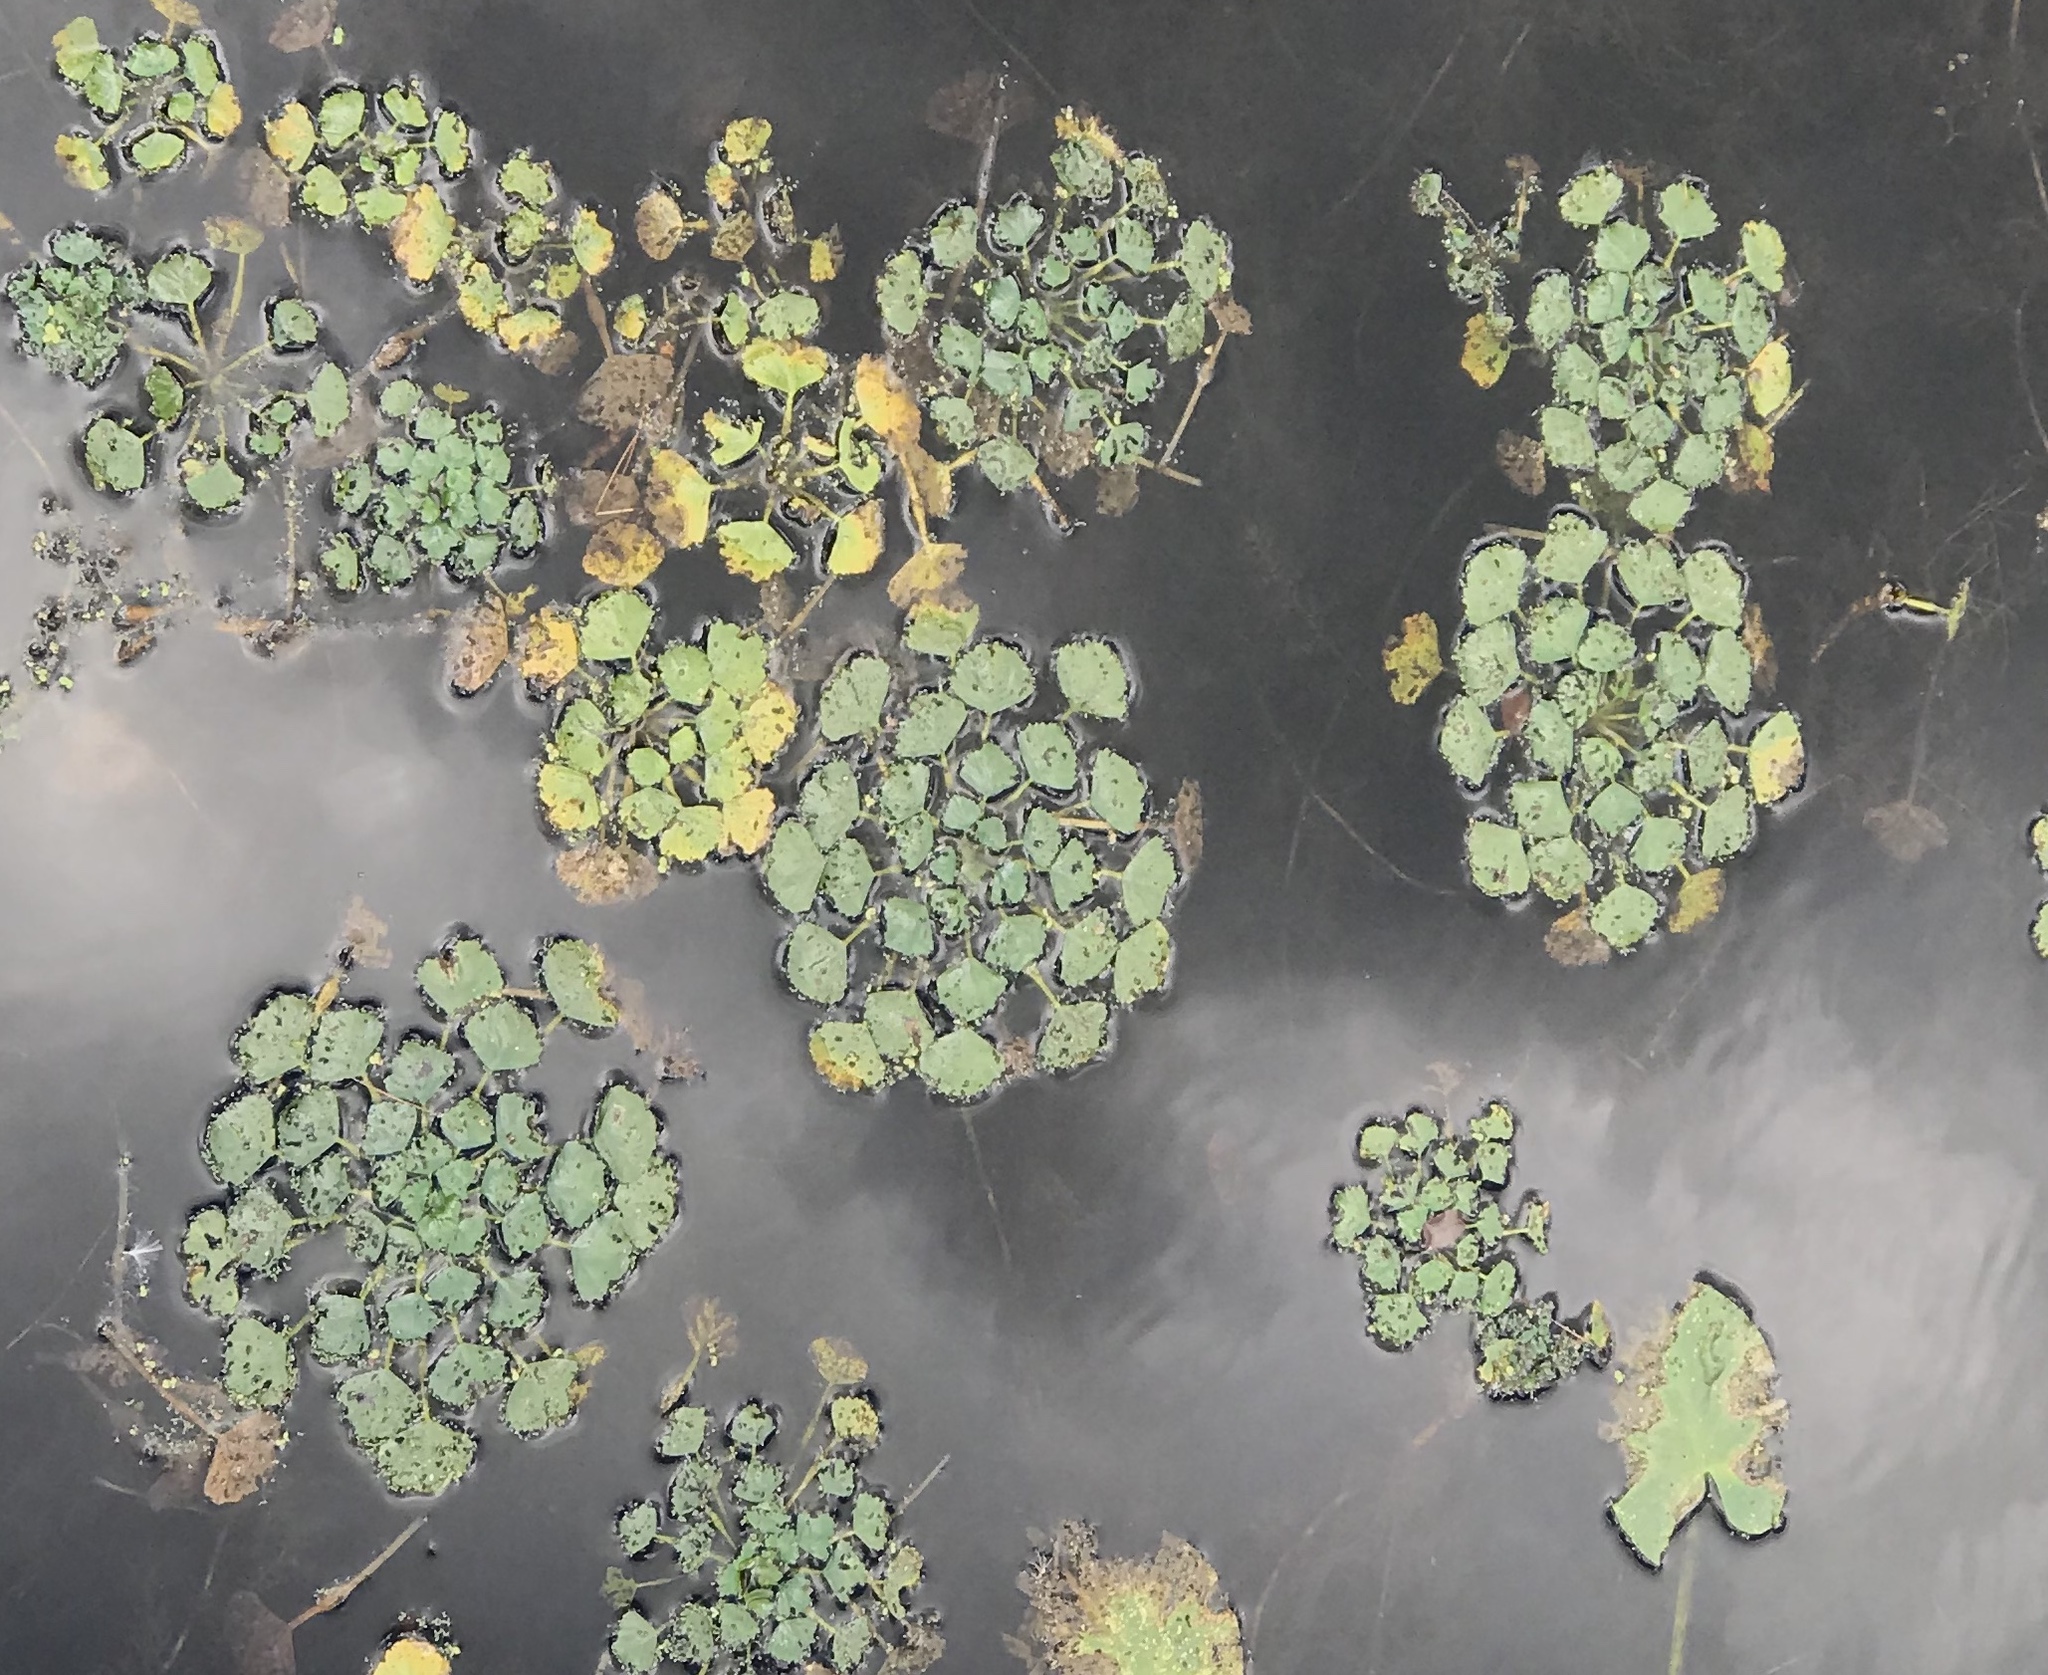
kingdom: Plantae
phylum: Tracheophyta
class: Magnoliopsida
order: Myrtales
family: Lythraceae
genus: Trapa
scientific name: Trapa natans
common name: Water chestnut
